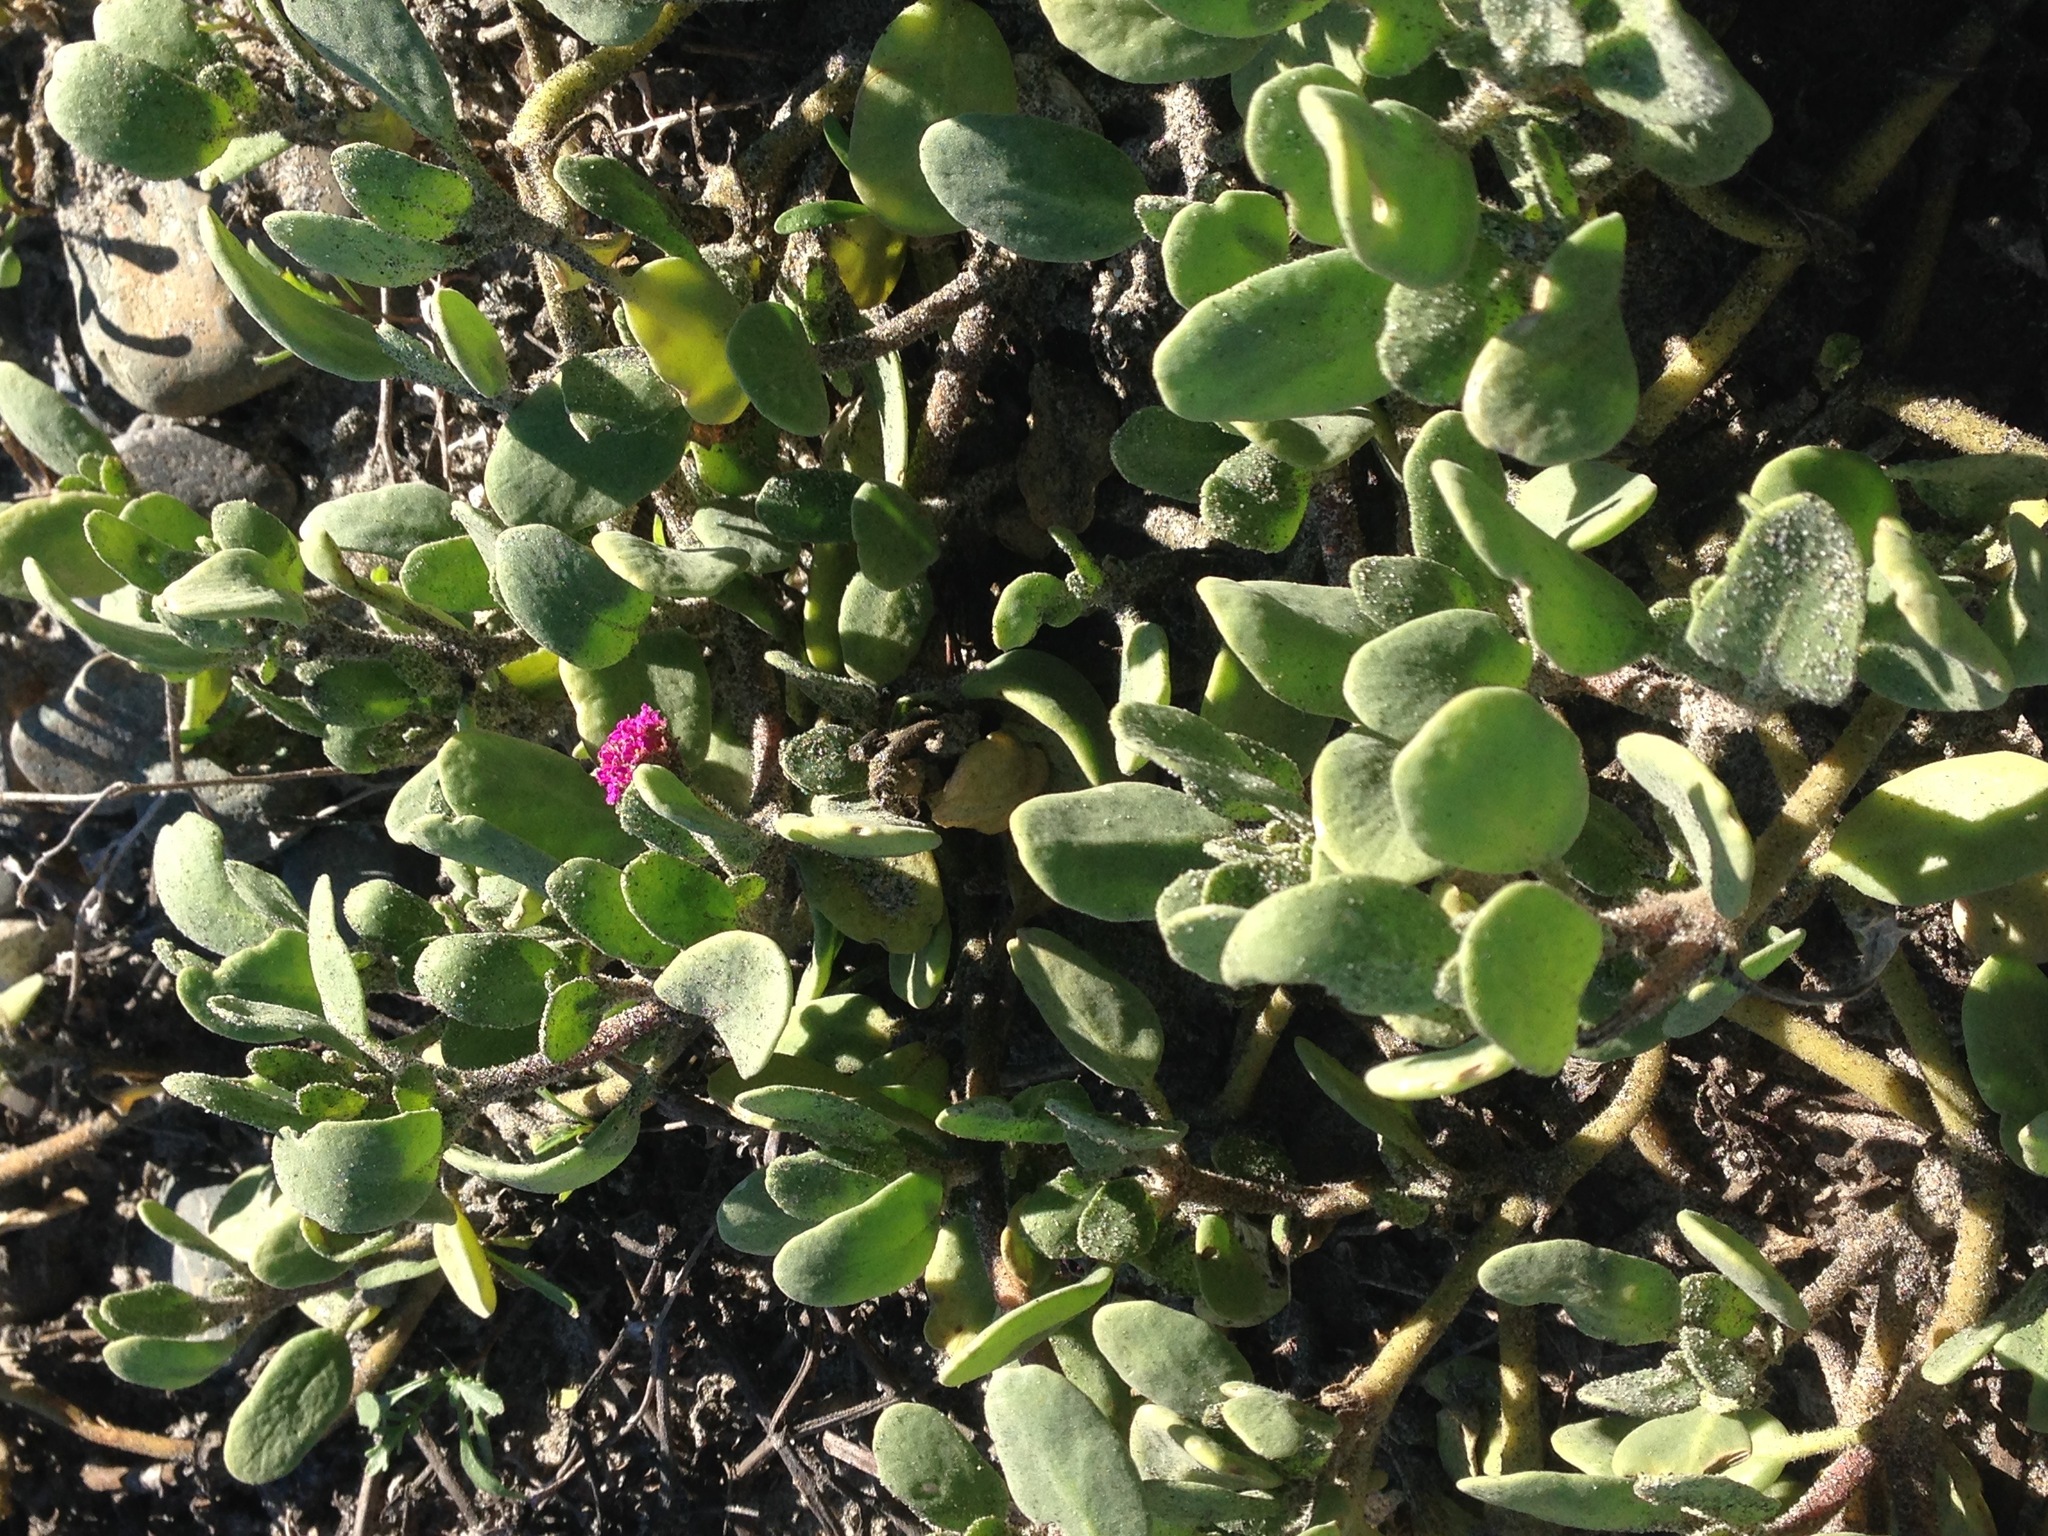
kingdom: Plantae
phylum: Tracheophyta
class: Magnoliopsida
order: Caryophyllales
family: Nyctaginaceae
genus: Abronia
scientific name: Abronia maritima
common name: Red sand-verbena
